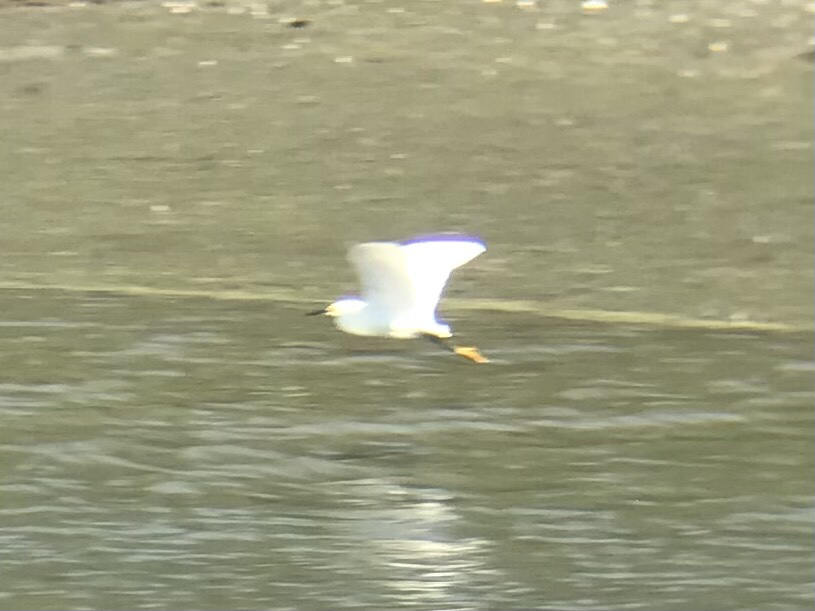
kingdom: Animalia
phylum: Chordata
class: Aves
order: Pelecaniformes
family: Ardeidae
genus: Egretta
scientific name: Egretta thula
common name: Snowy egret
